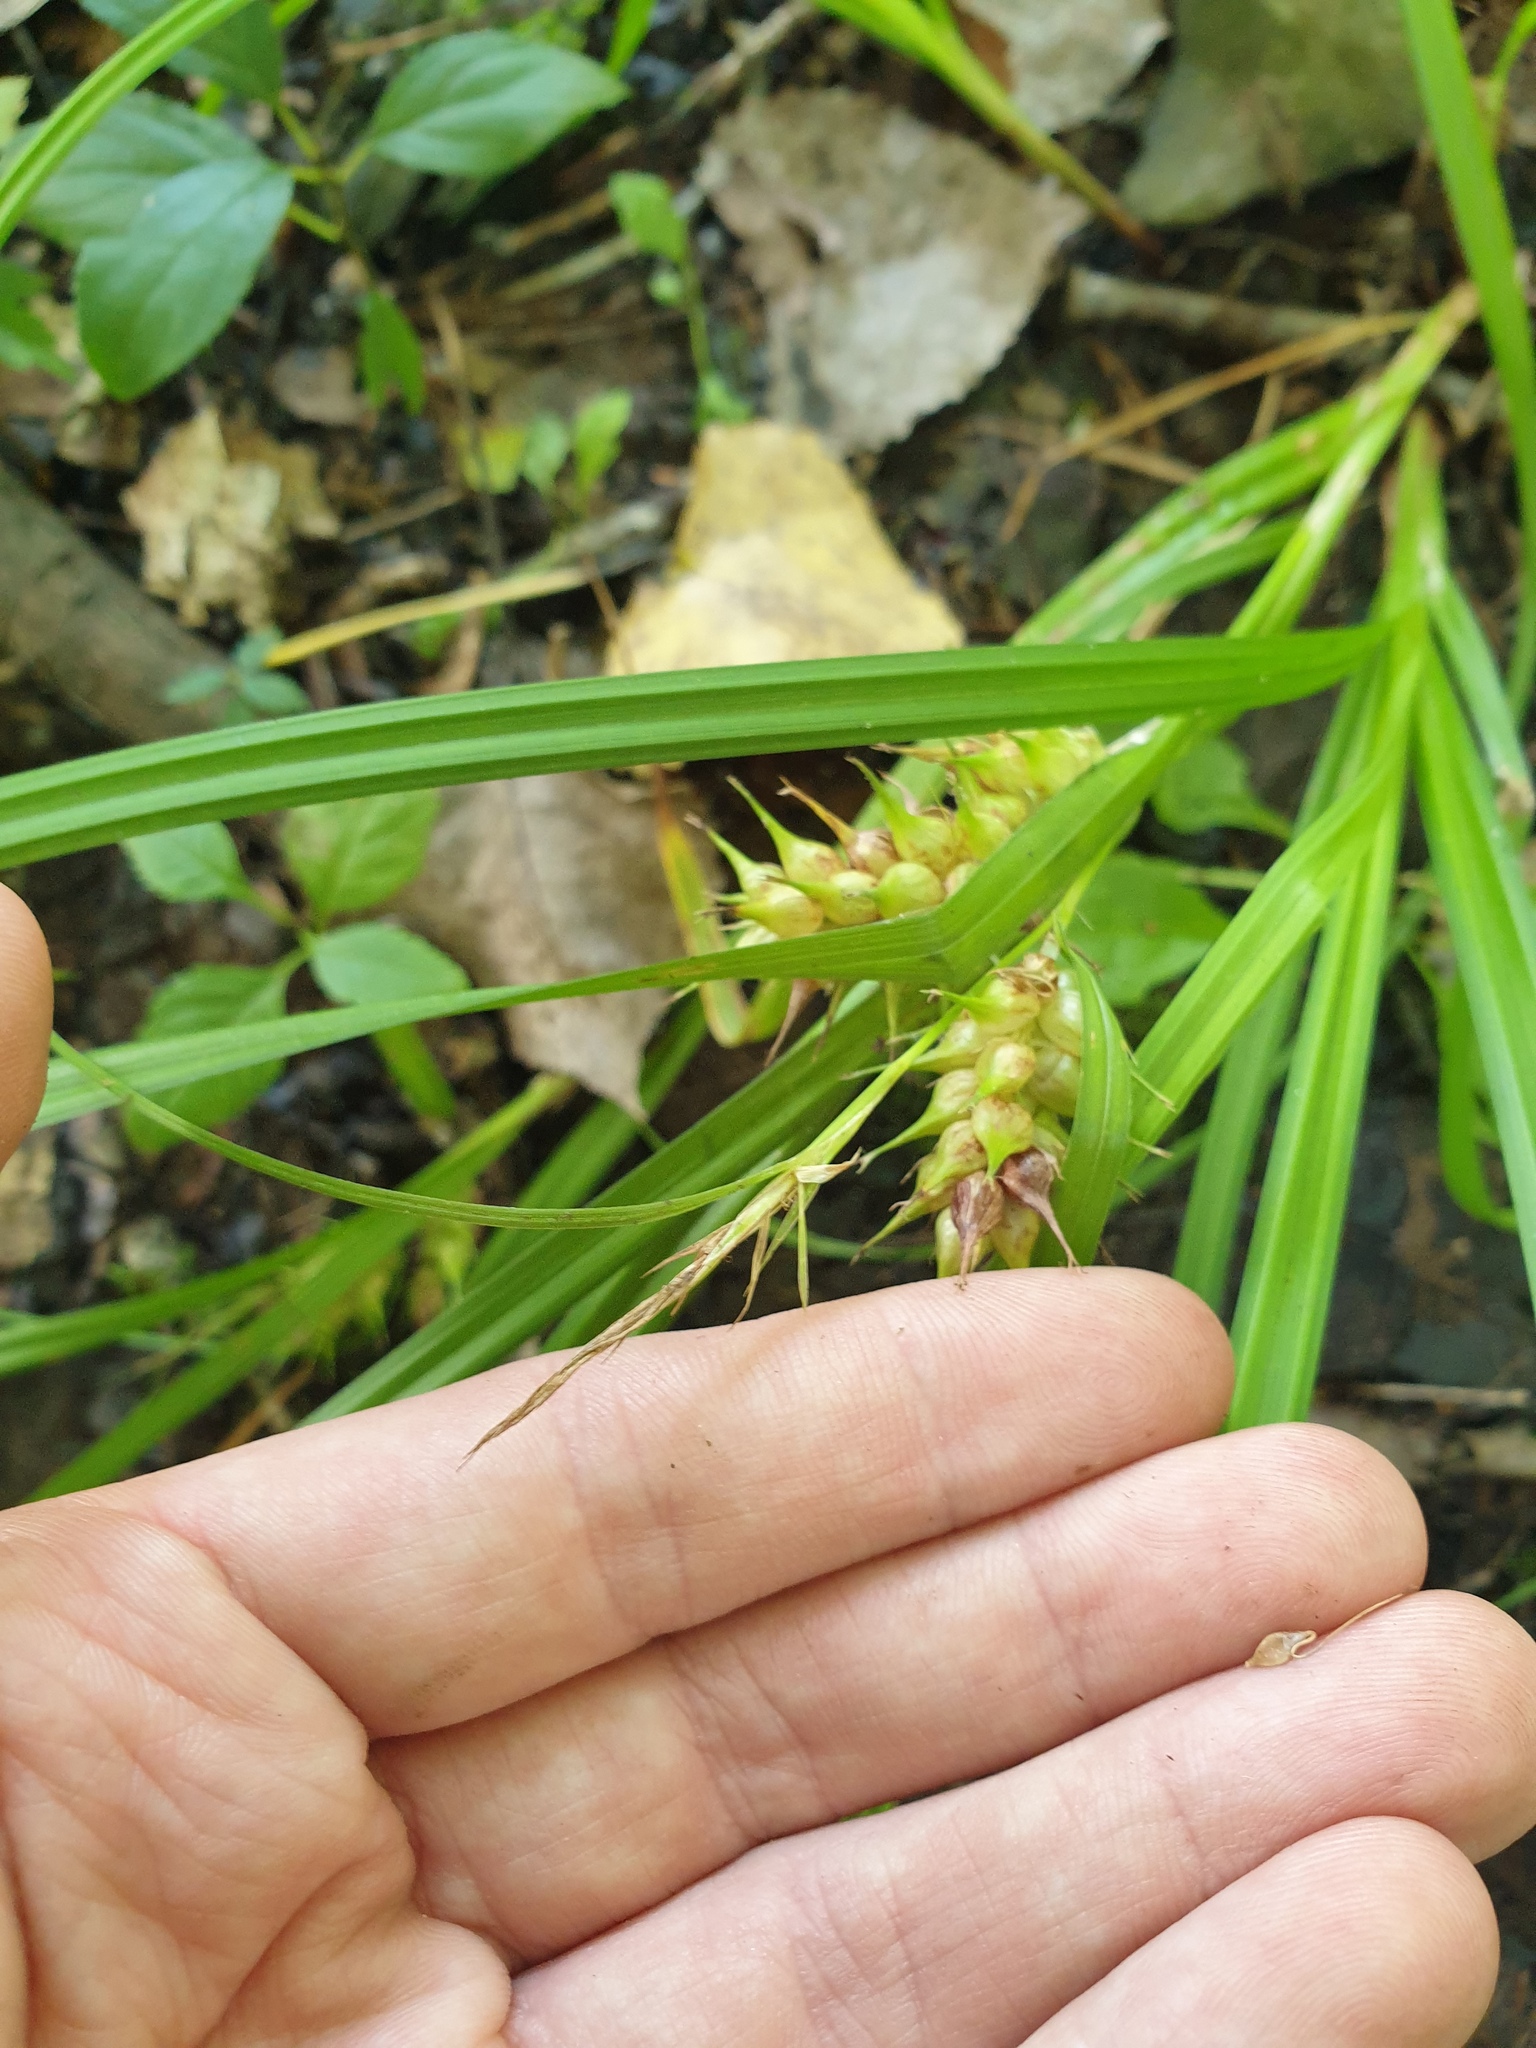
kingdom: Plantae
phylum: Tracheophyta
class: Liliopsida
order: Poales
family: Cyperaceae
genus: Carex
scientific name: Carex lupulina
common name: Hop sedge
